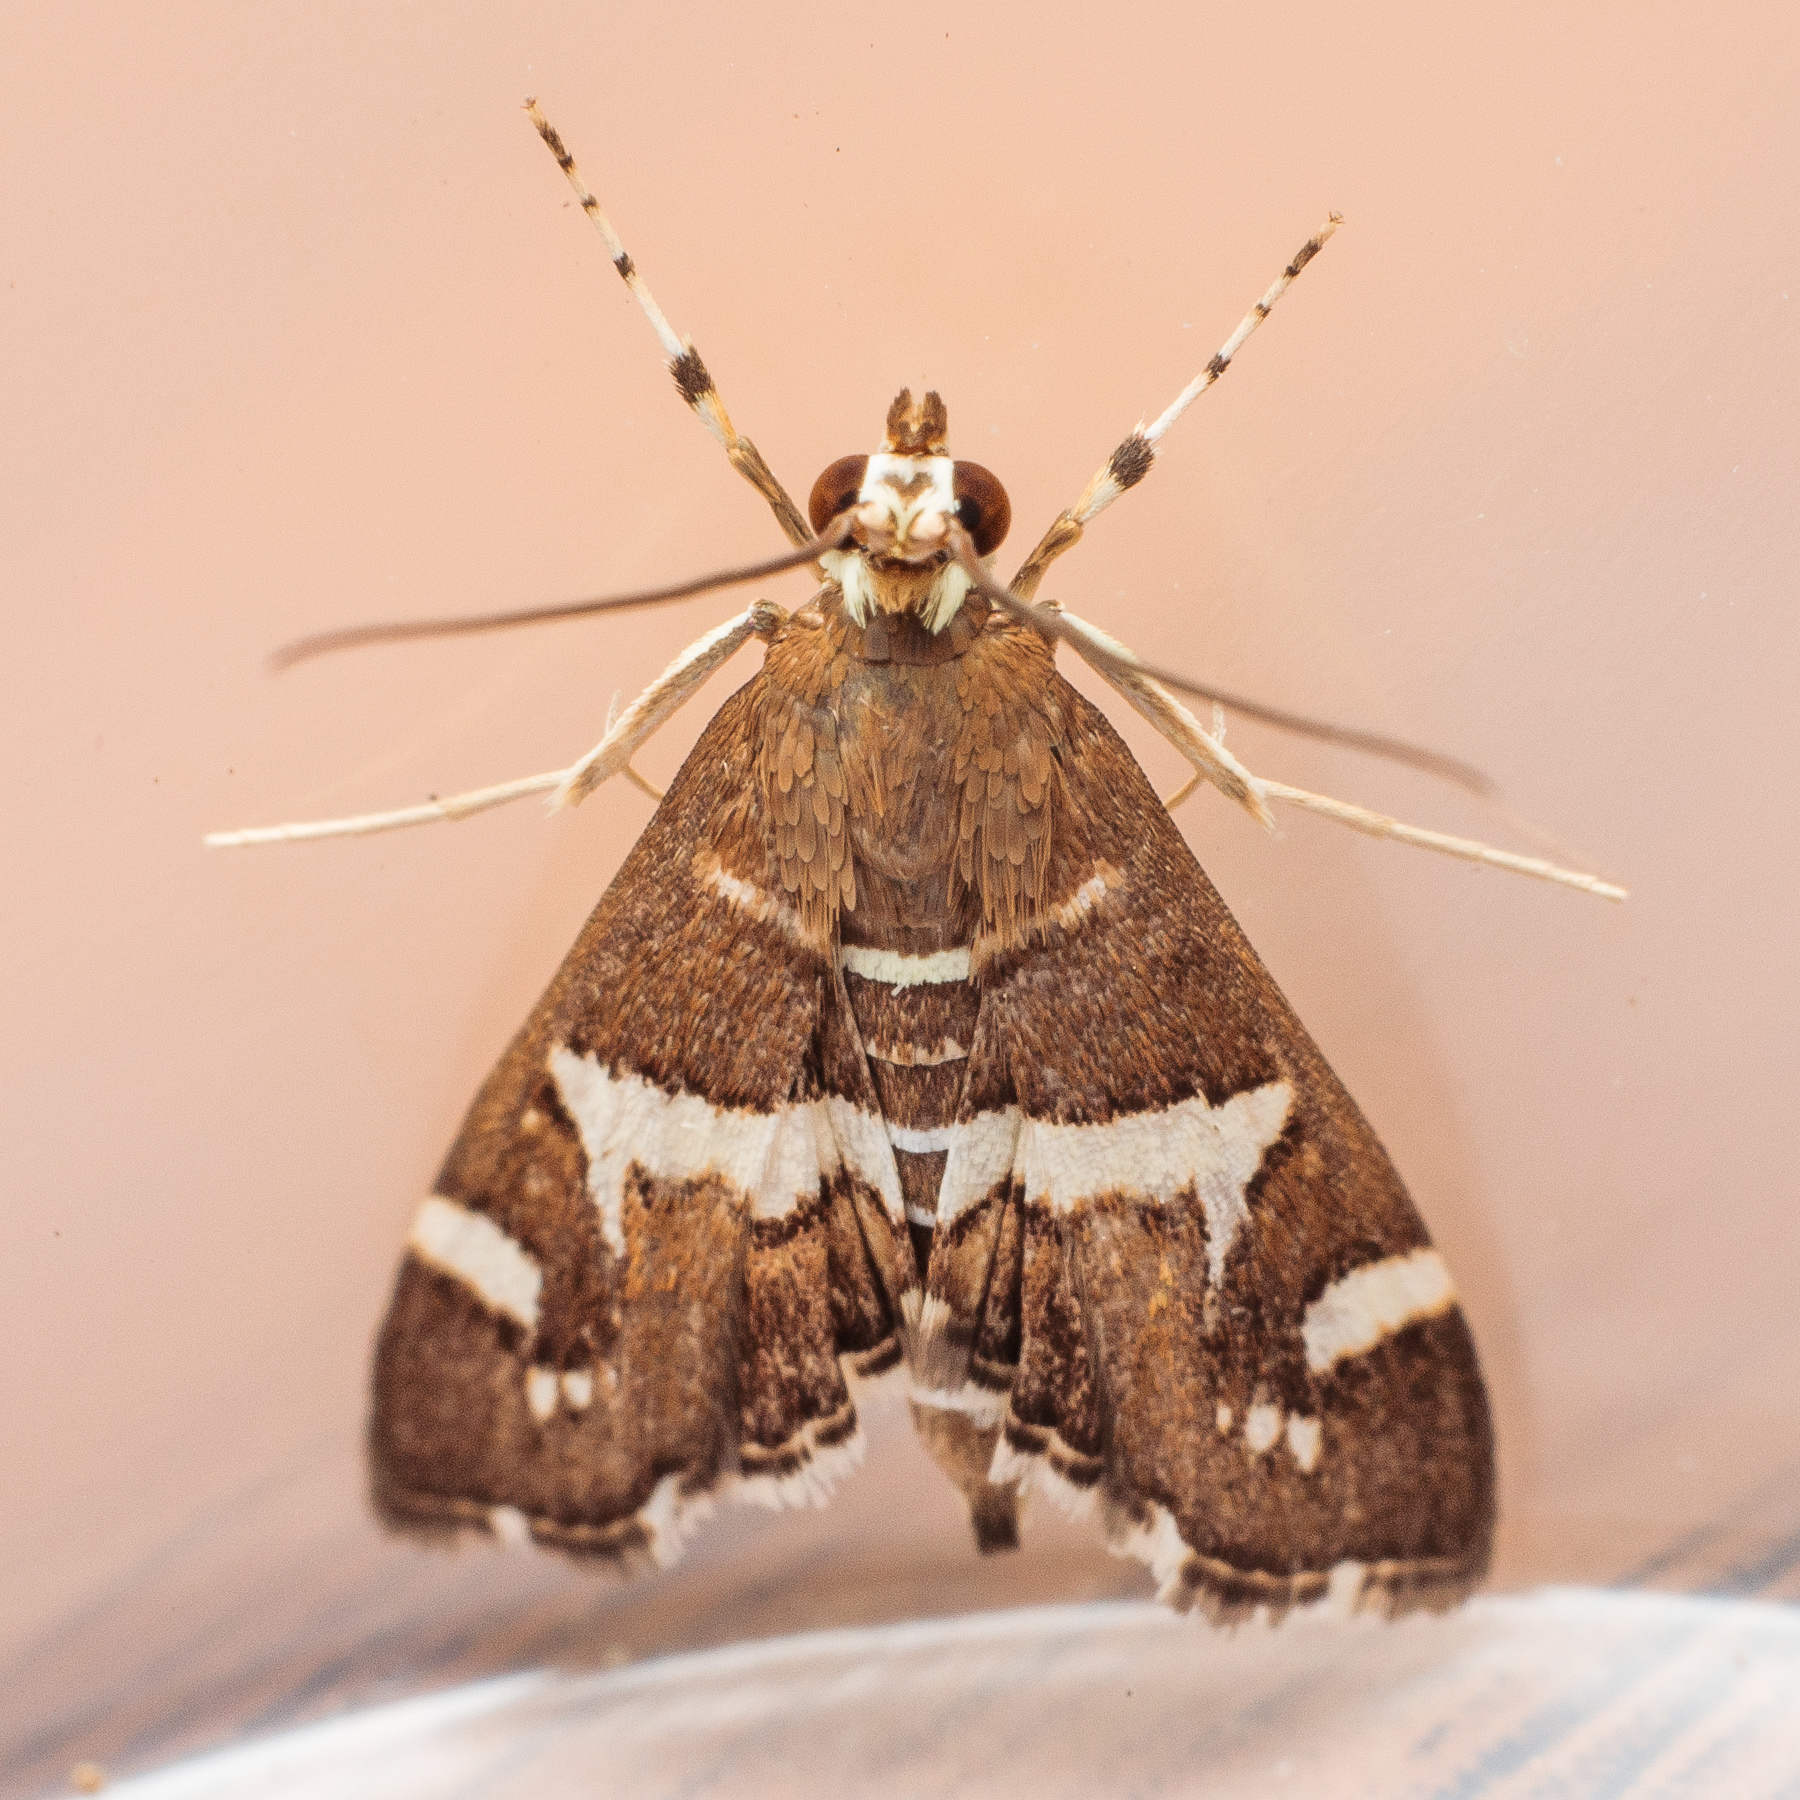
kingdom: Animalia
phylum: Arthropoda
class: Insecta
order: Lepidoptera
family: Crambidae
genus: Spoladea
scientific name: Spoladea recurvalis
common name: Beet webworm moth
